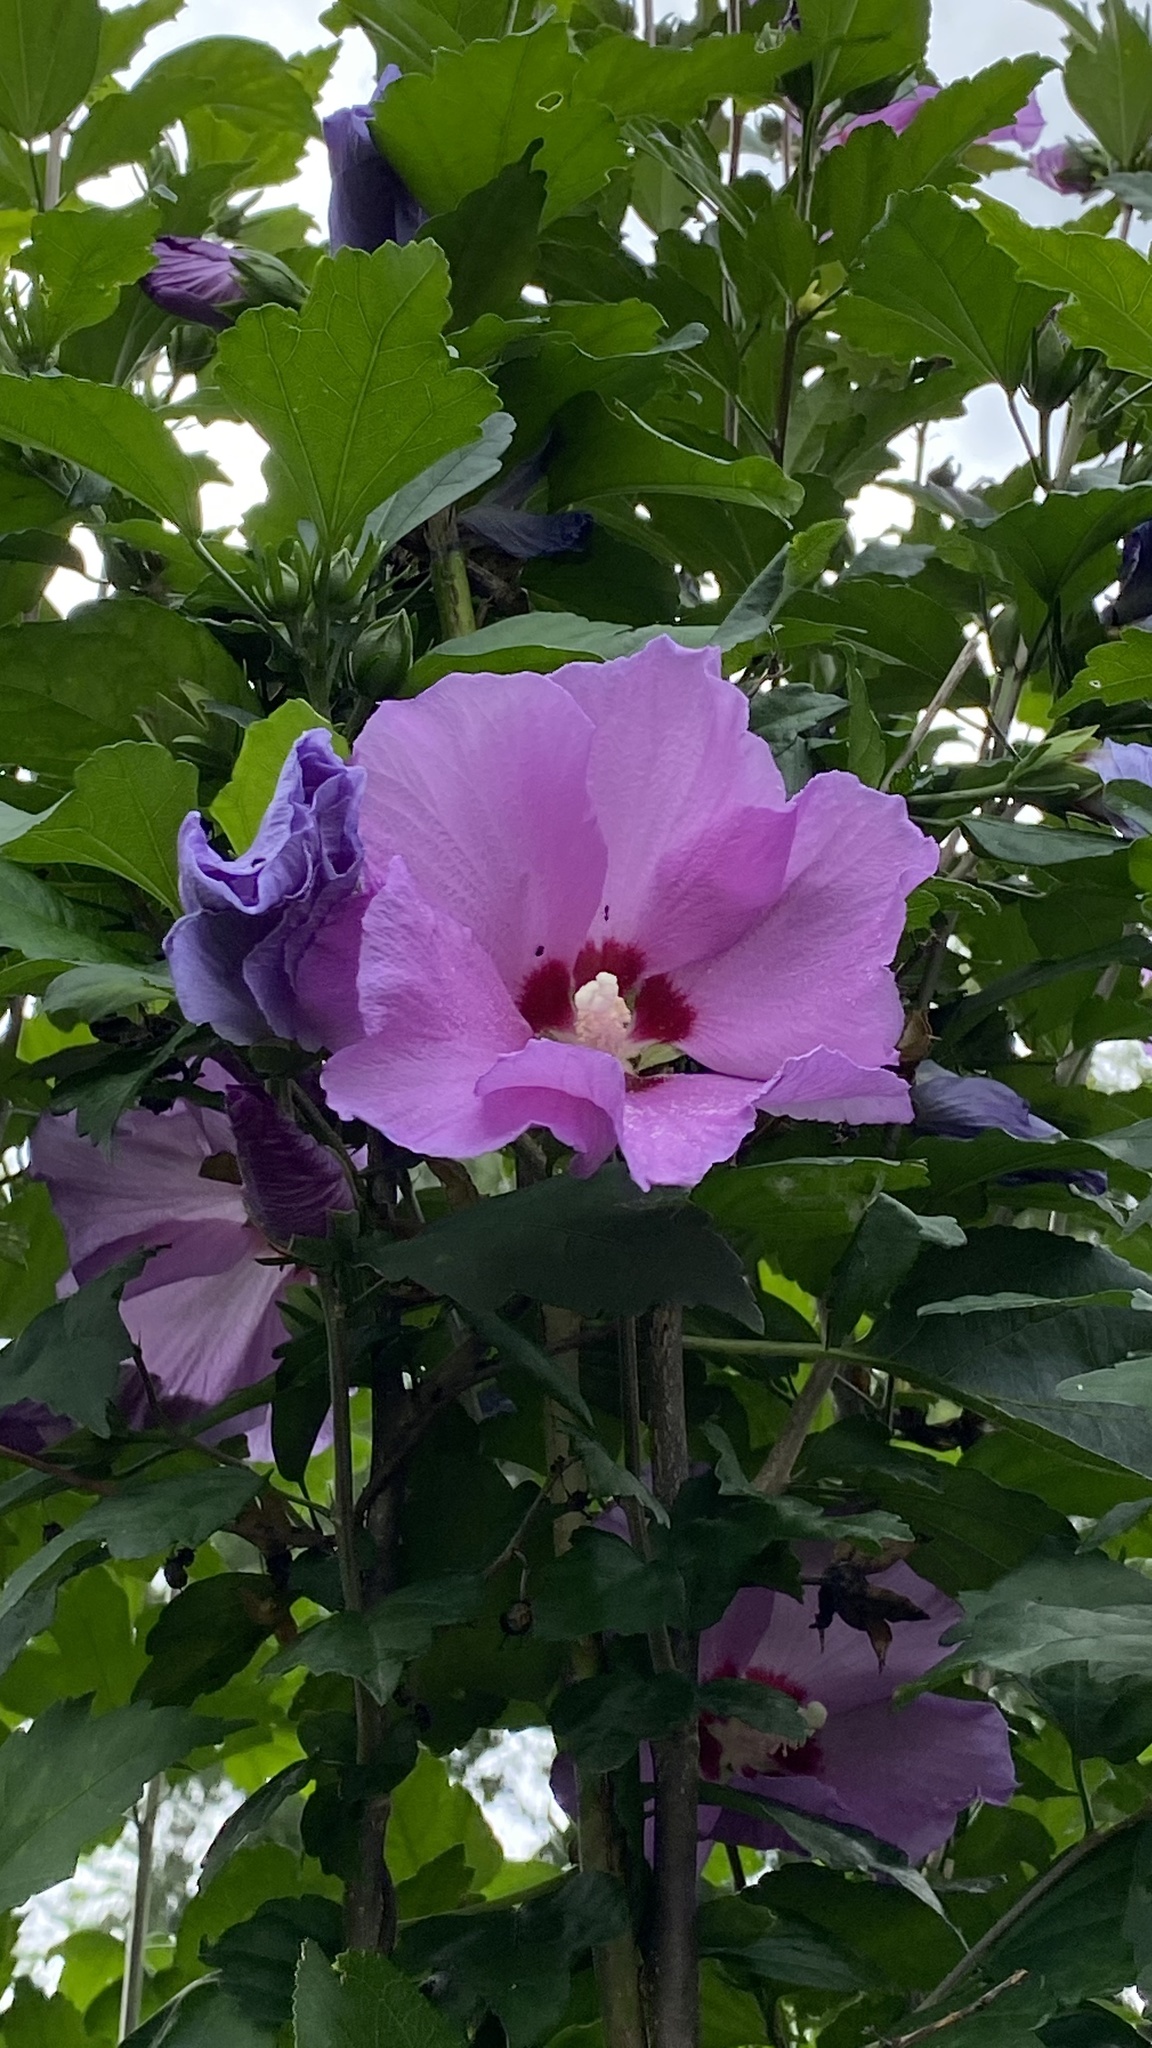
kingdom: Plantae
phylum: Tracheophyta
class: Magnoliopsida
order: Malvales
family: Malvaceae
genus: Hibiscus
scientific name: Hibiscus syriacus
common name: Syrian ketmia
